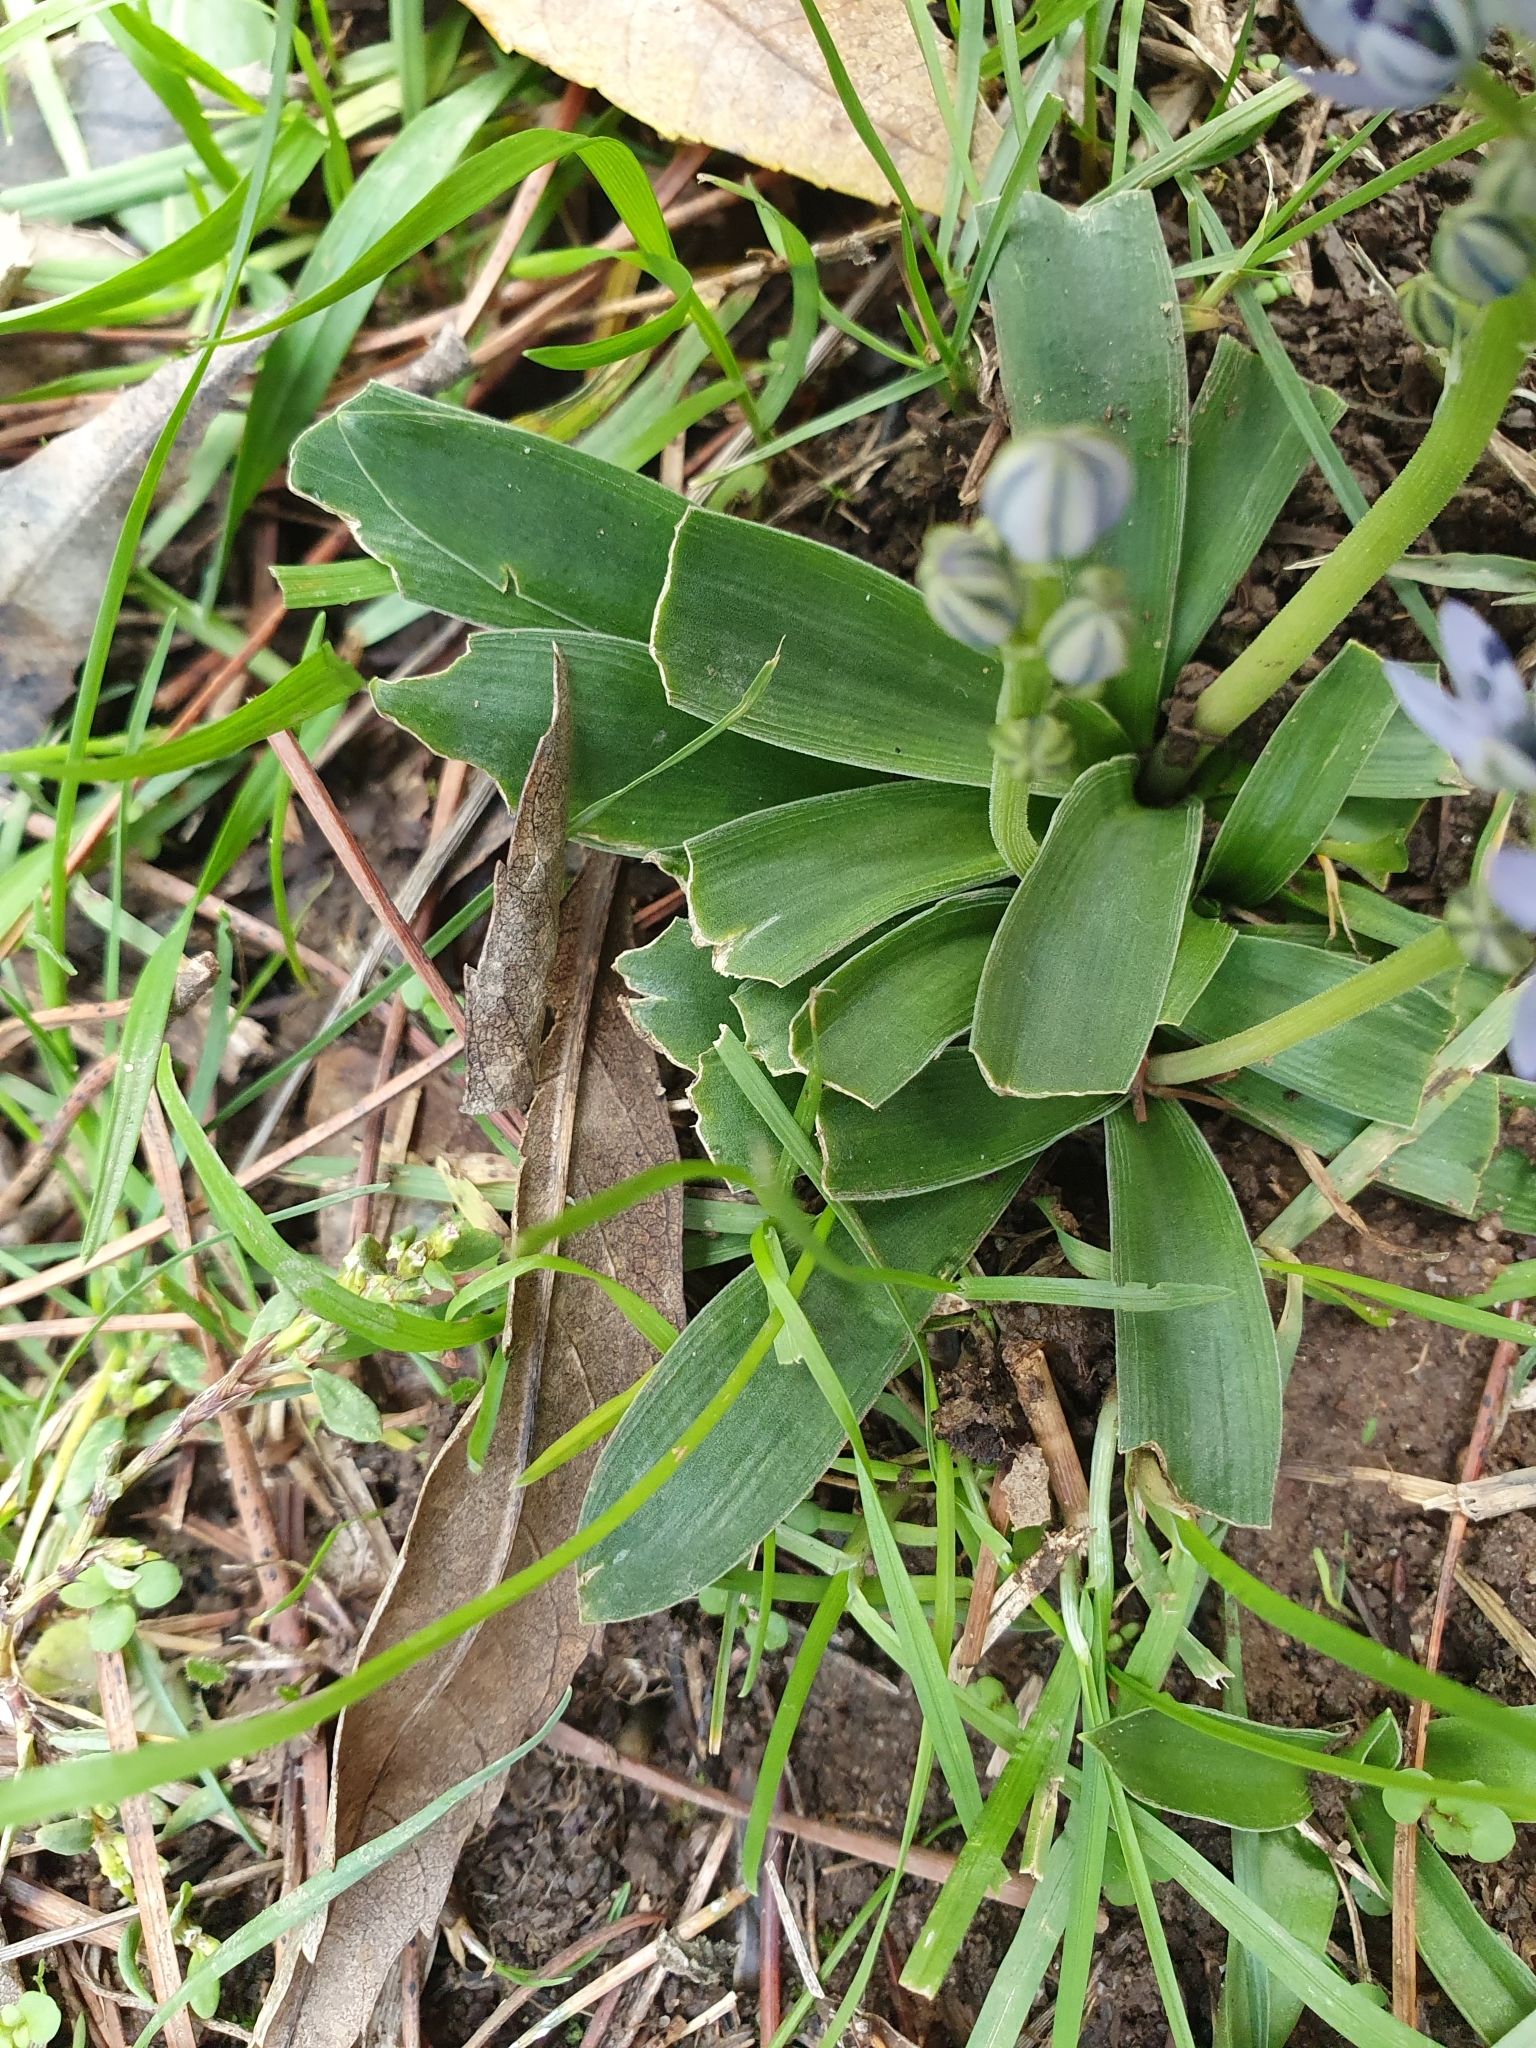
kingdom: Plantae
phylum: Tracheophyta
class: Liliopsida
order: Asparagales
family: Asparagaceae
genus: Hyacinthoides
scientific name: Hyacinthoides lingulata
